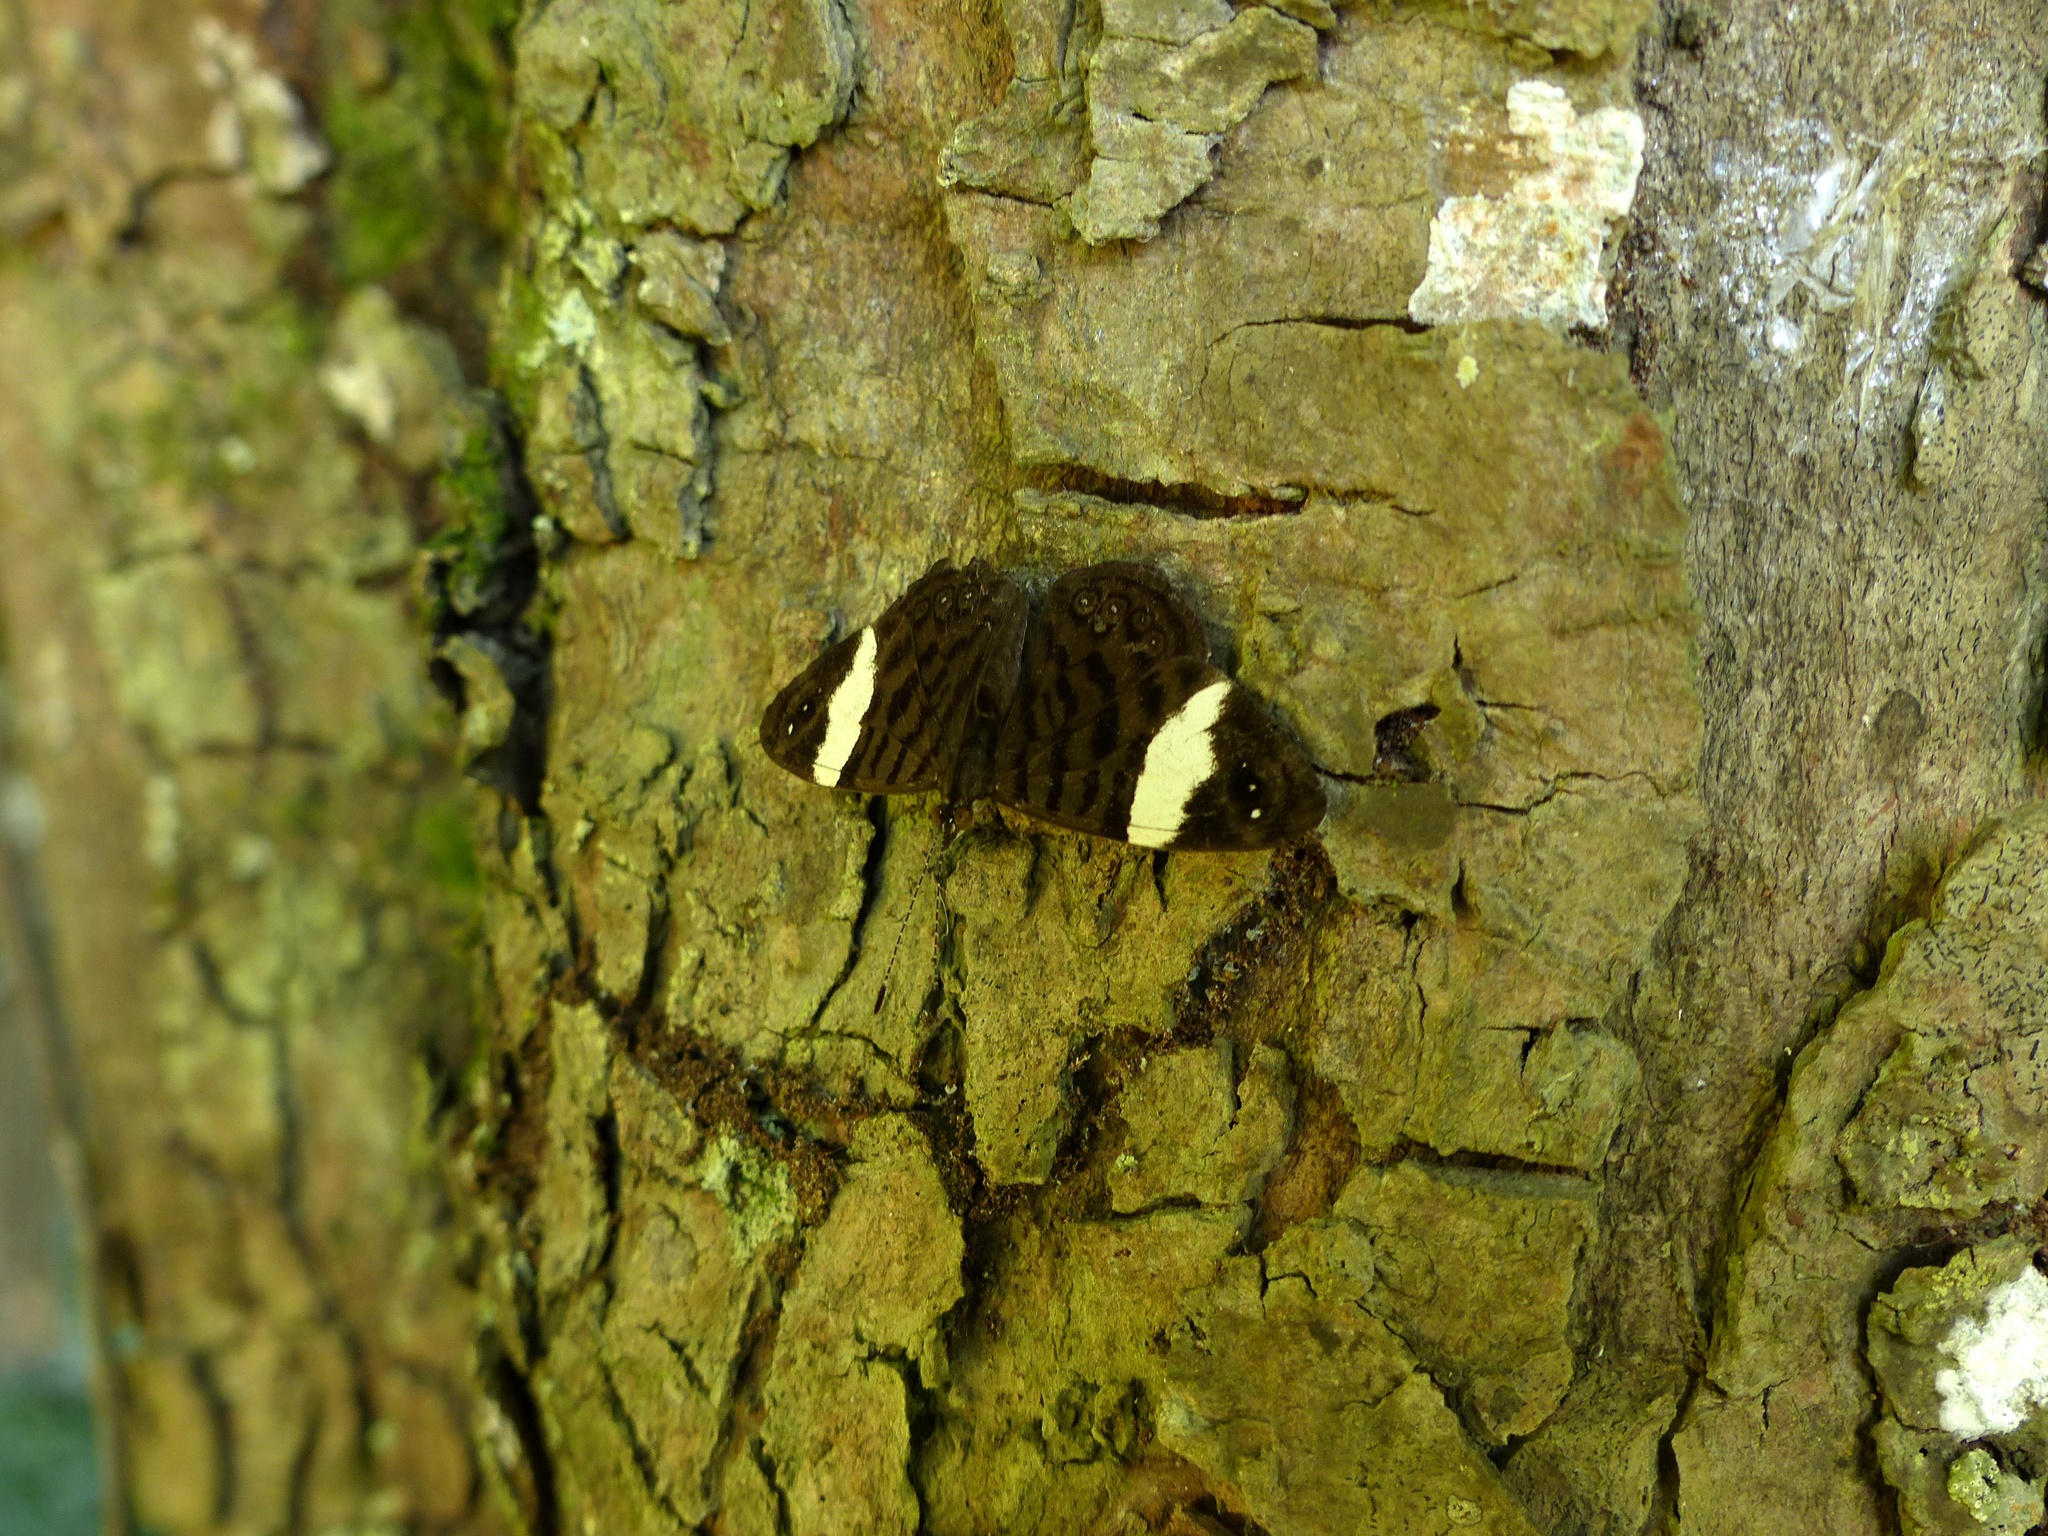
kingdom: Animalia
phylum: Arthropoda
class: Insecta
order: Lepidoptera
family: Nymphalidae
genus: Ectima
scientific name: Ectima thecla
